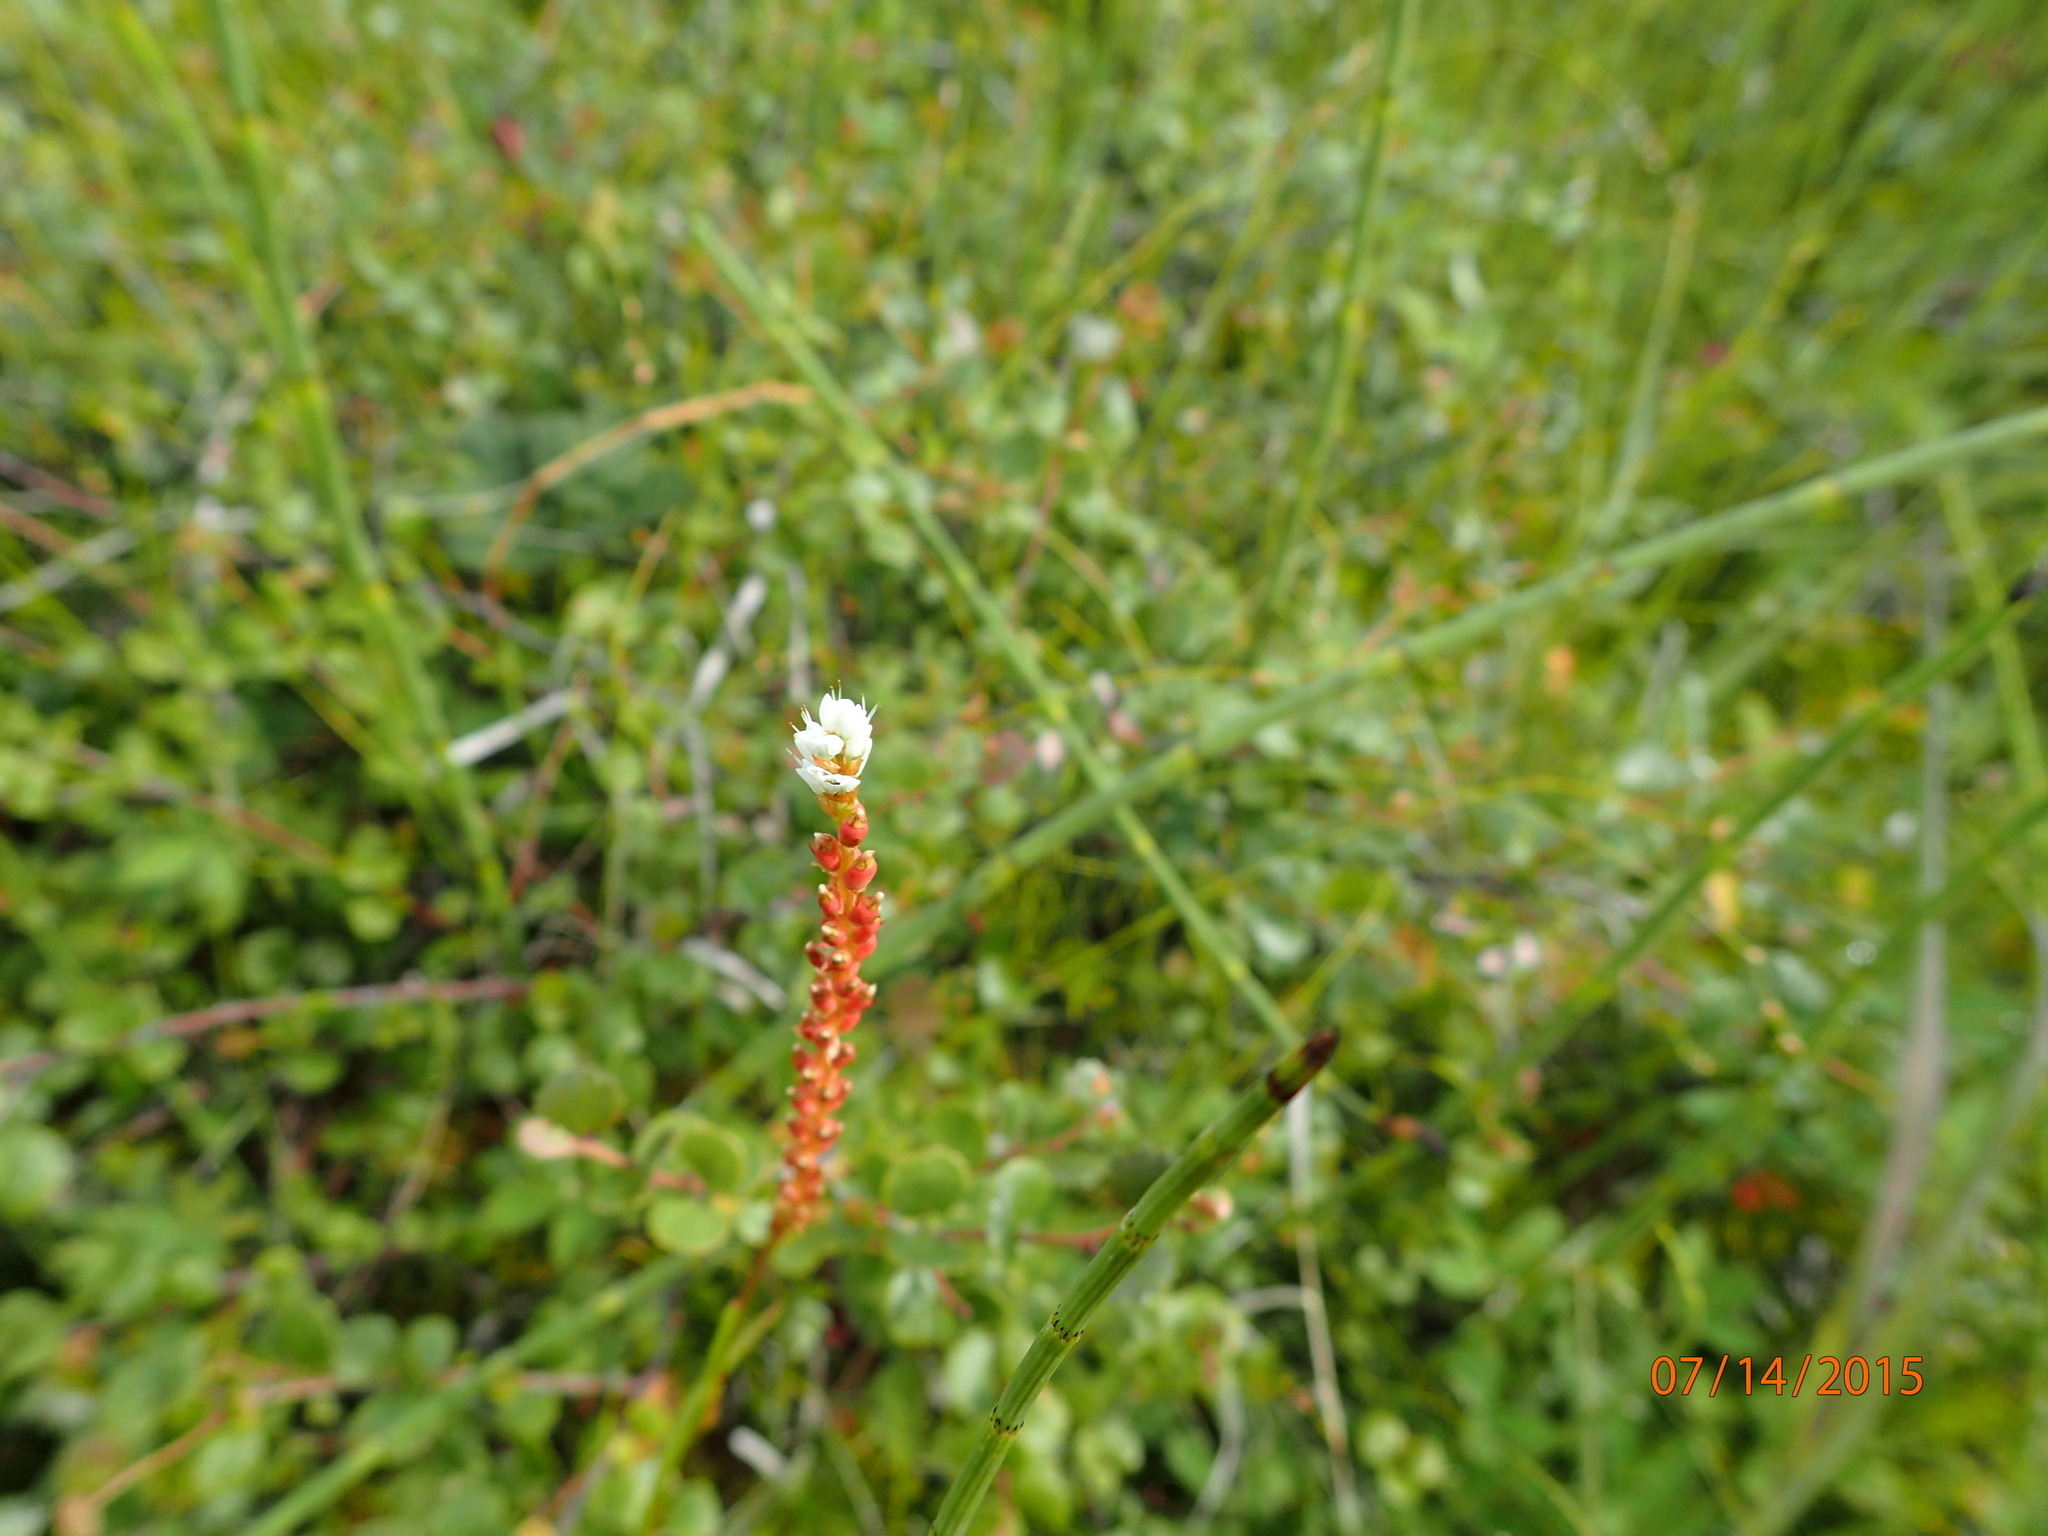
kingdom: Plantae
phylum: Tracheophyta
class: Magnoliopsida
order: Caryophyllales
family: Polygonaceae
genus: Bistorta
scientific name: Bistorta vivipara
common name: Alpine bistort
